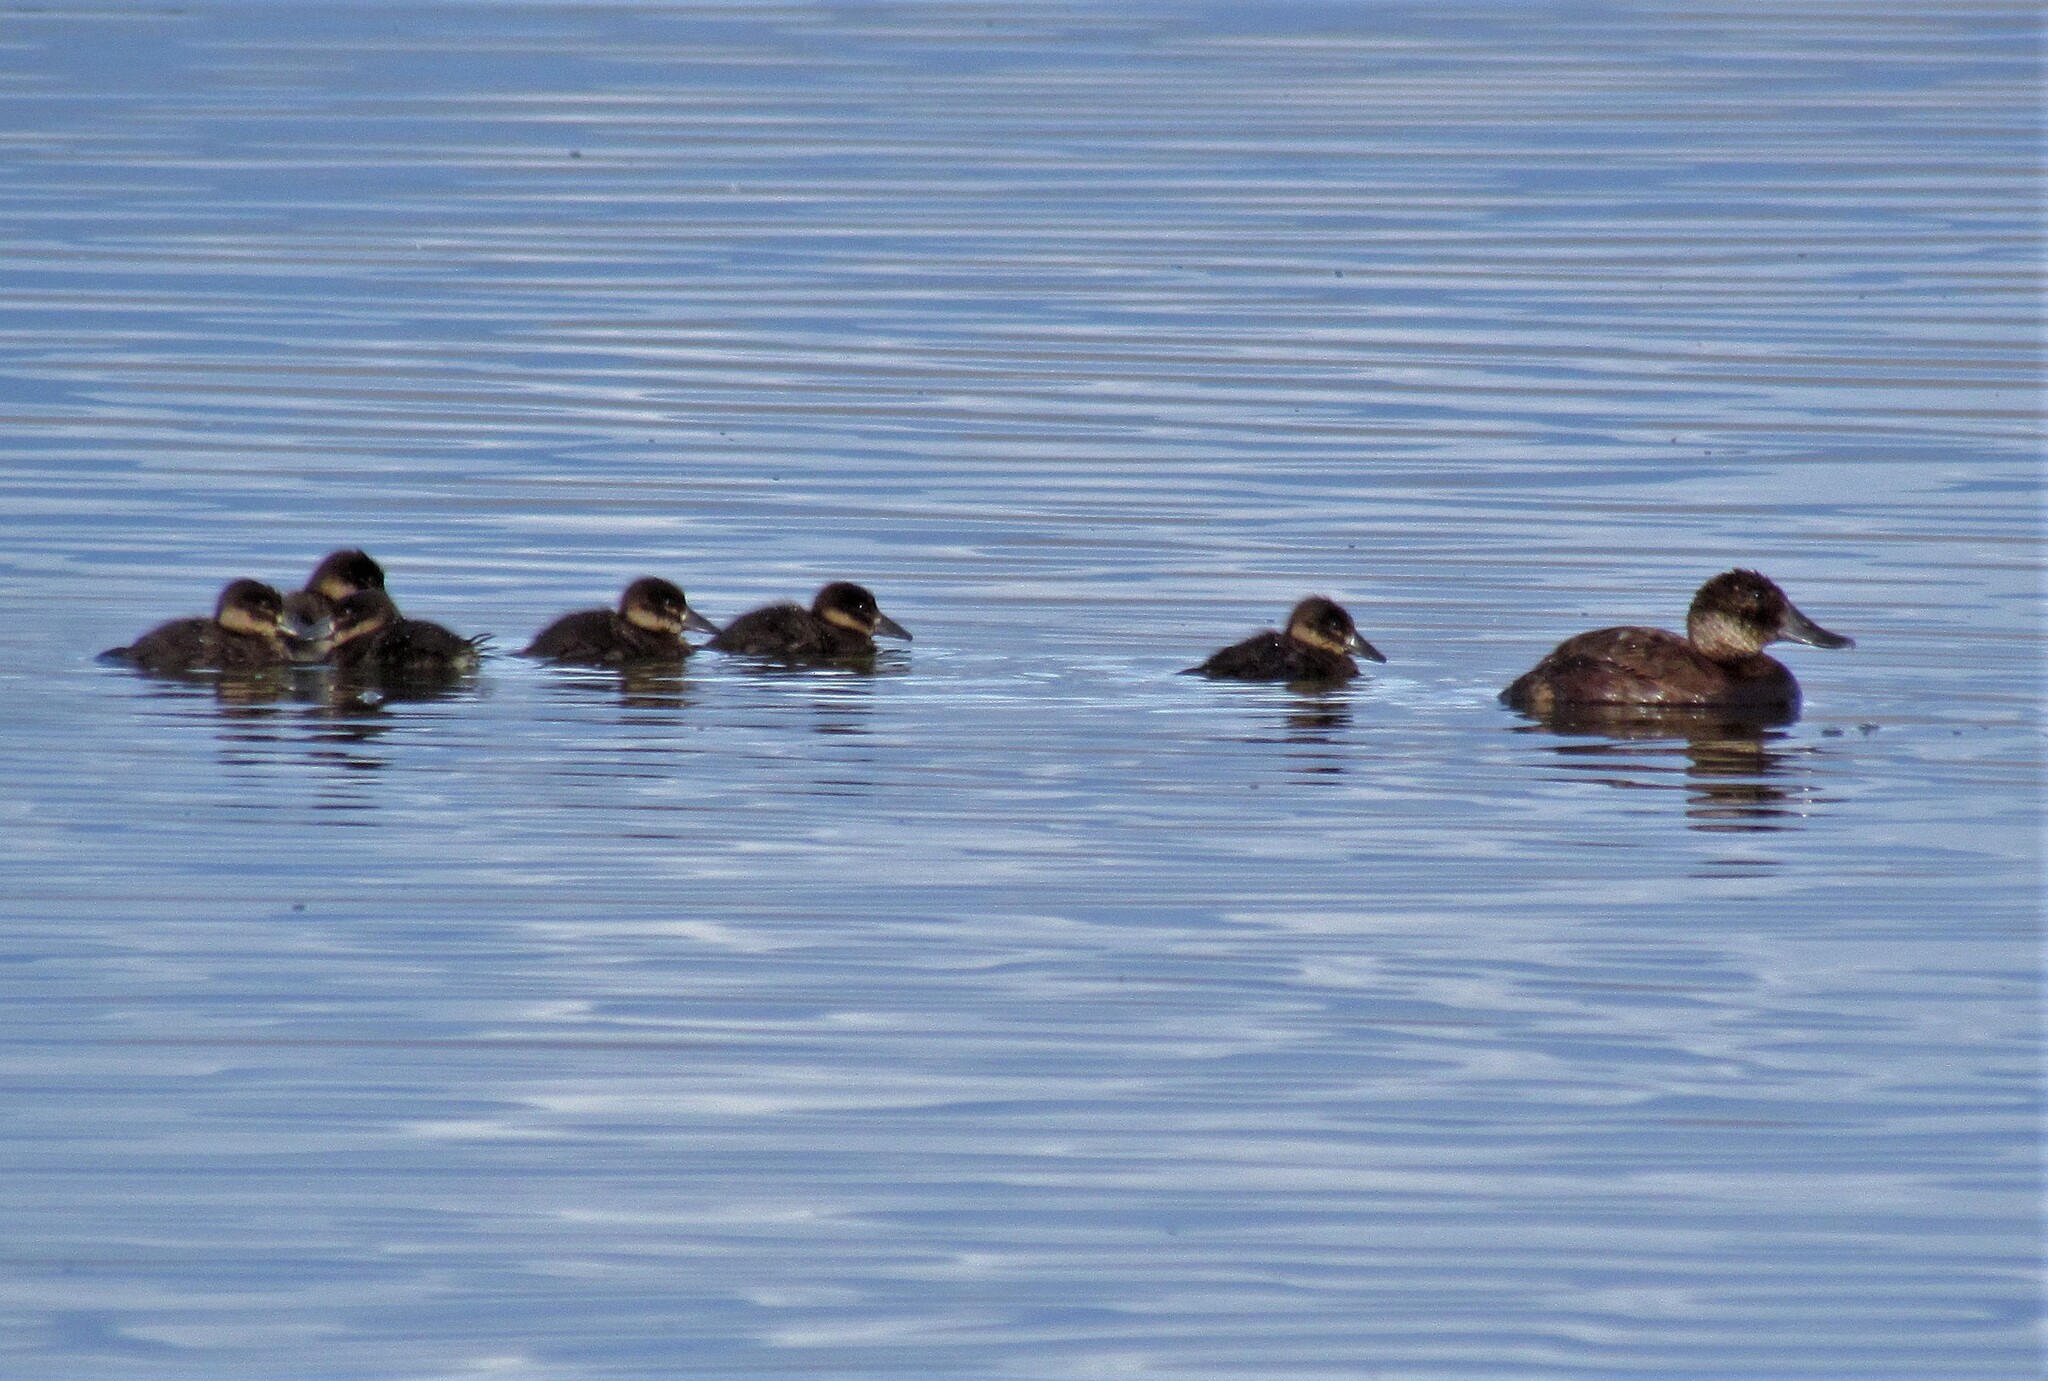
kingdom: Animalia
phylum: Chordata
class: Aves
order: Anseriformes
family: Anatidae
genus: Oxyura
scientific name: Oxyura ferruginea
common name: Andean duck
